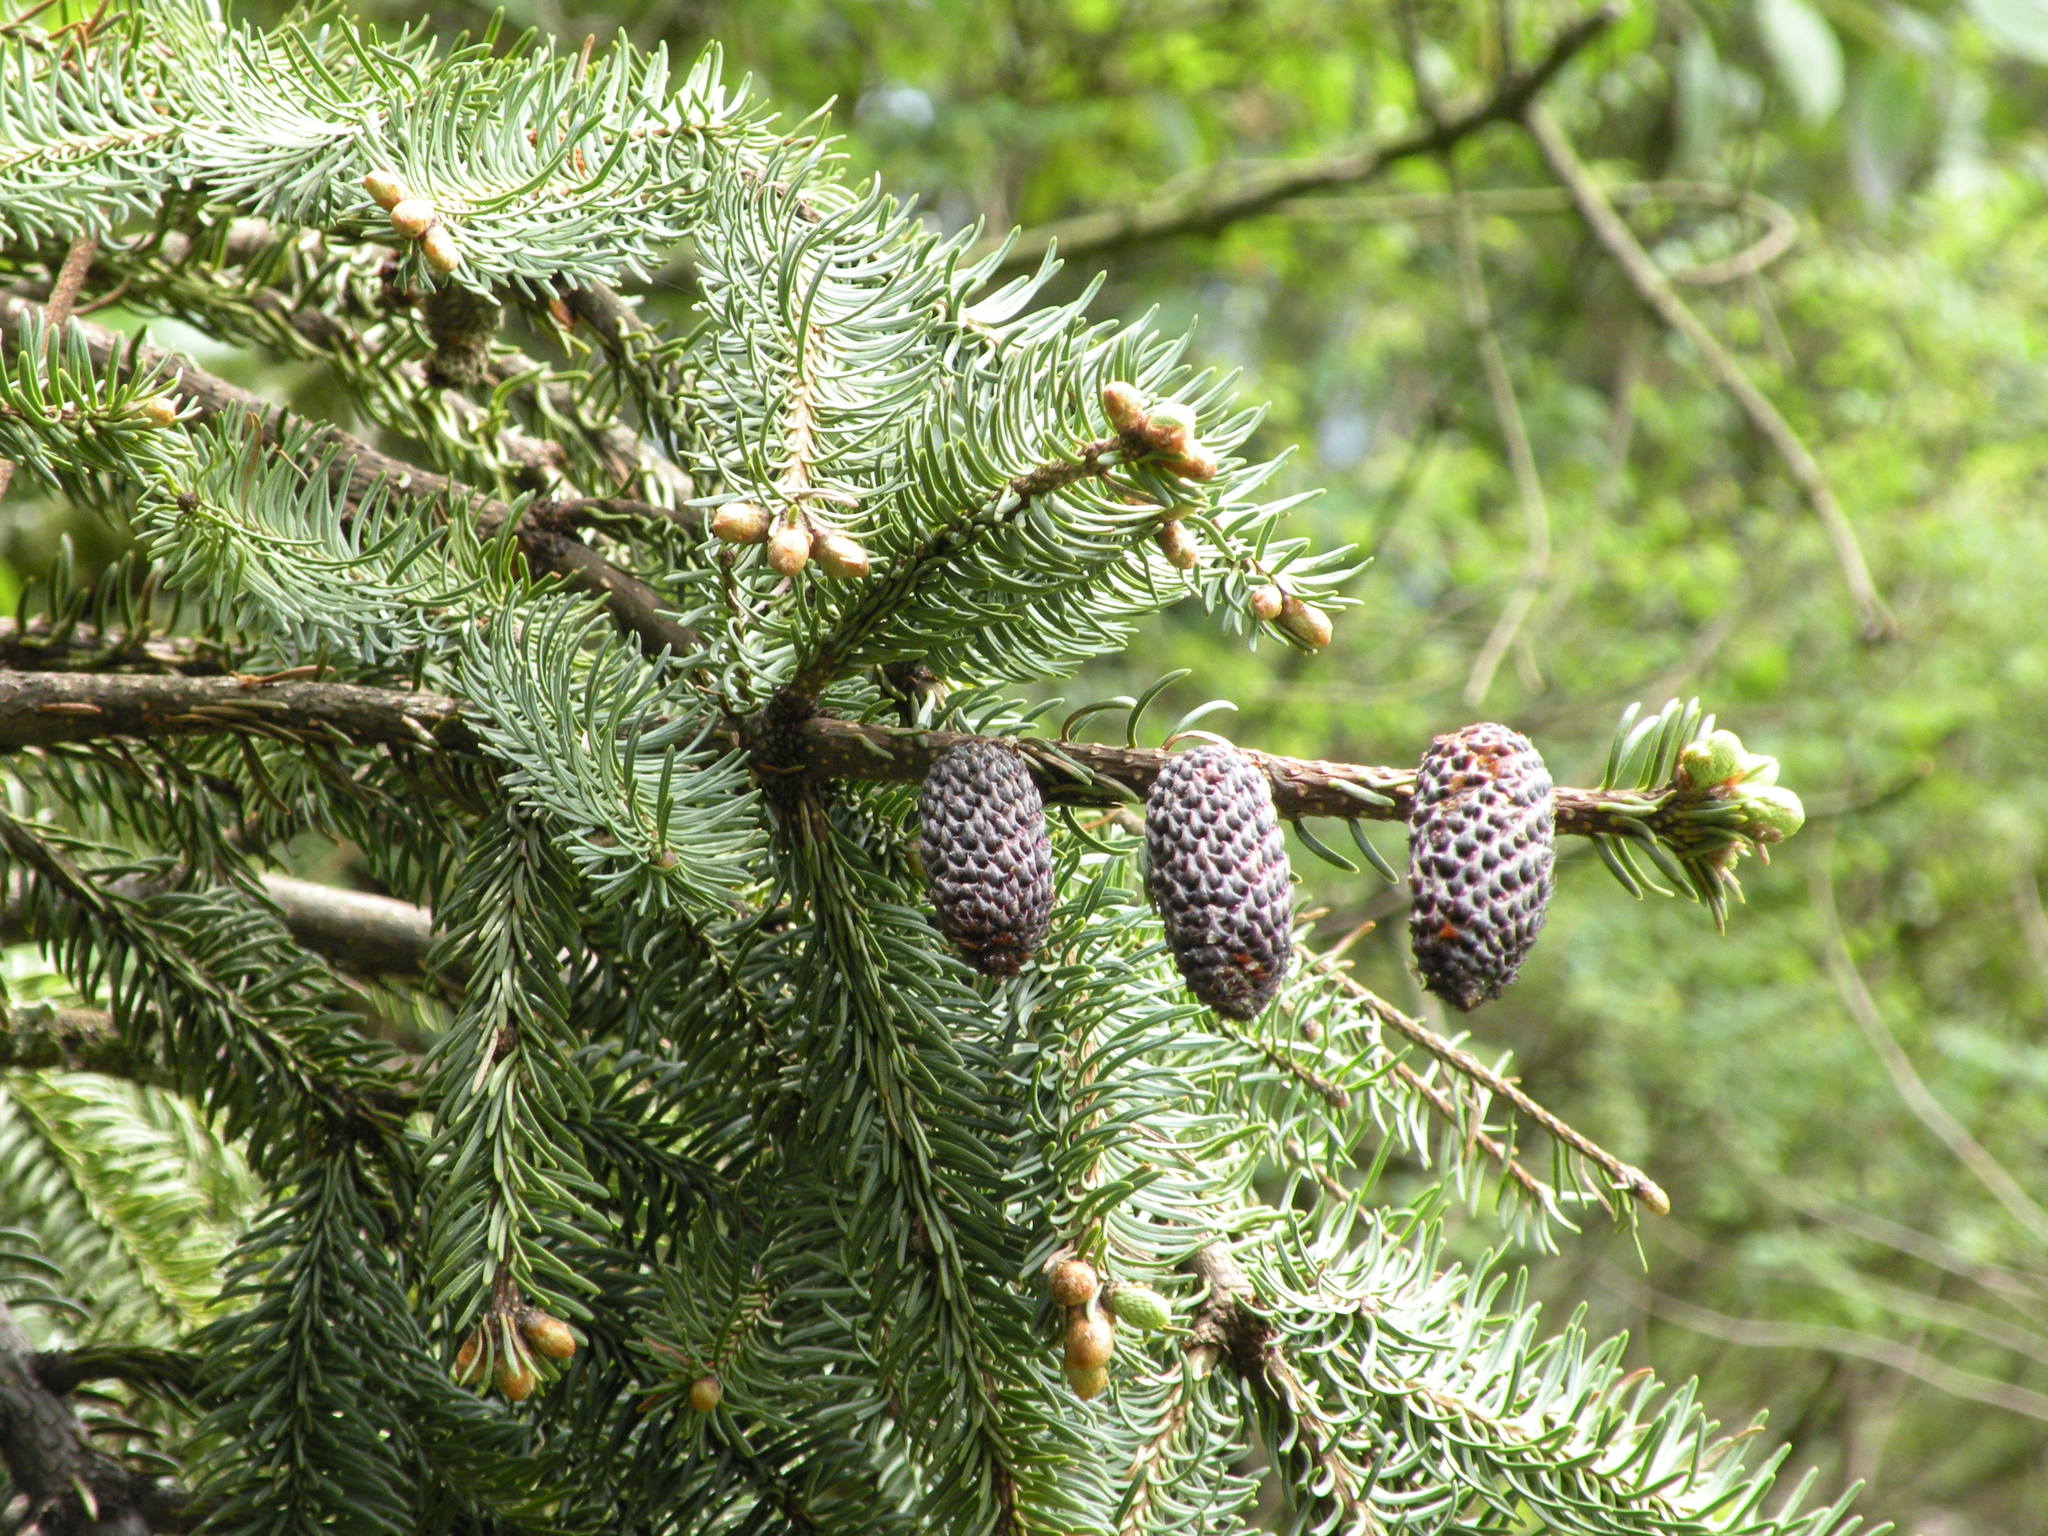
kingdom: Plantae
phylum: Tracheophyta
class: Pinopsida
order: Pinales
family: Pinaceae
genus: Abies
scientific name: Abies religiosa
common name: Sacred fir
